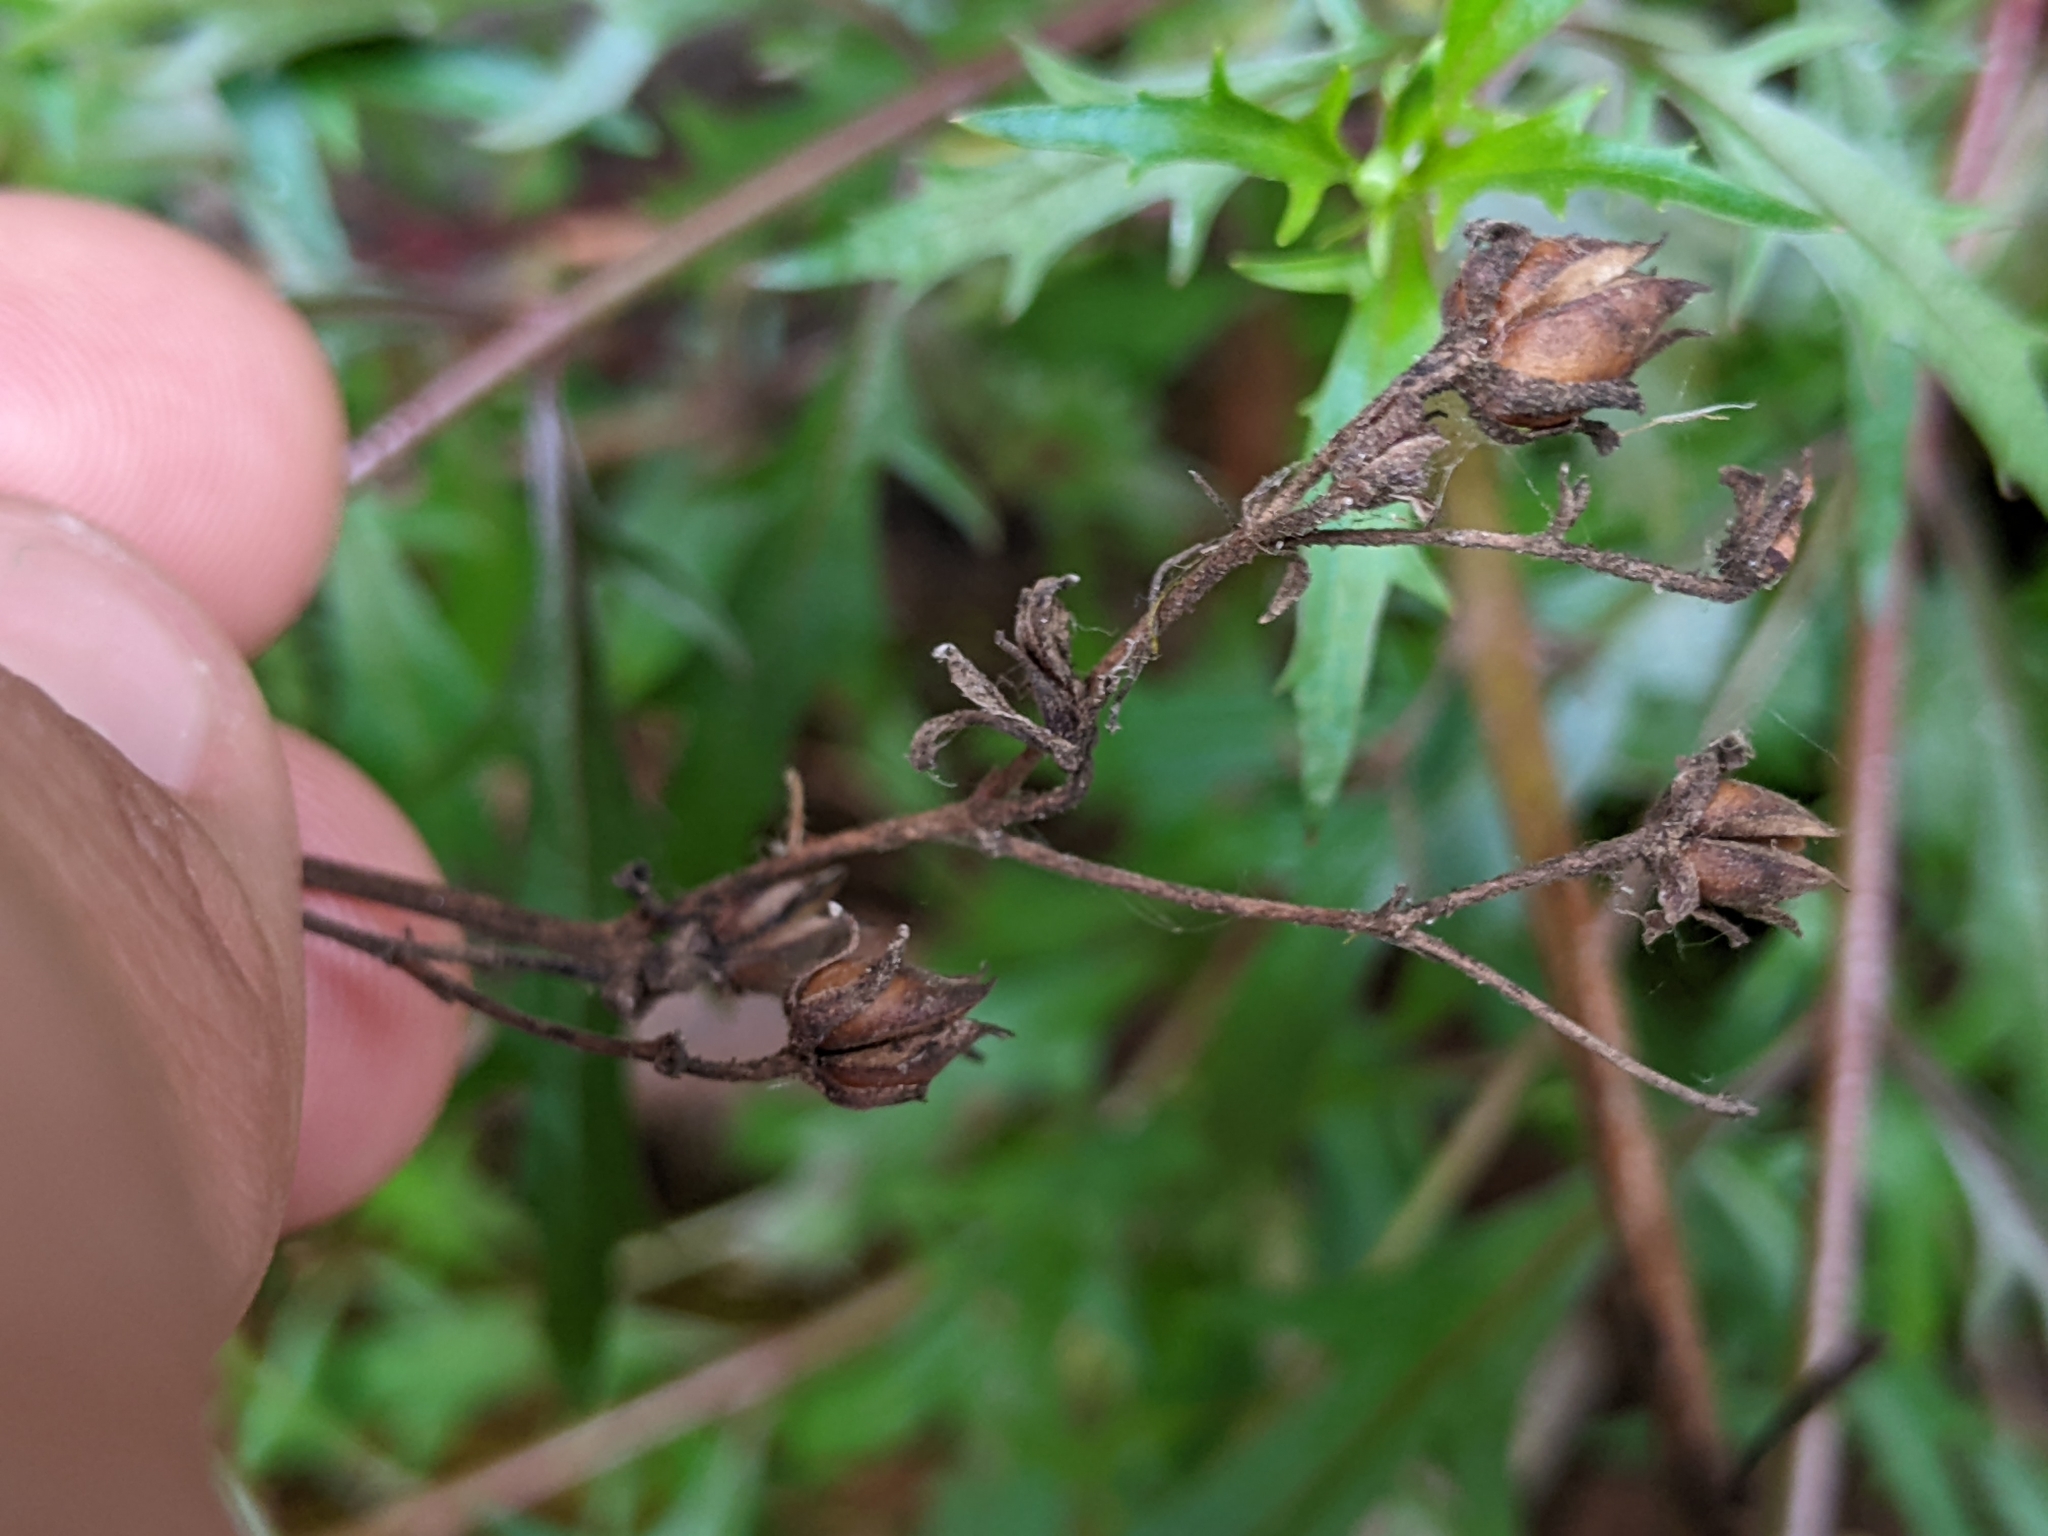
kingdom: Plantae
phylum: Tracheophyta
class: Magnoliopsida
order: Lamiales
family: Plantaginaceae
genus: Penstemon
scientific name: Penstemon richardsonii
